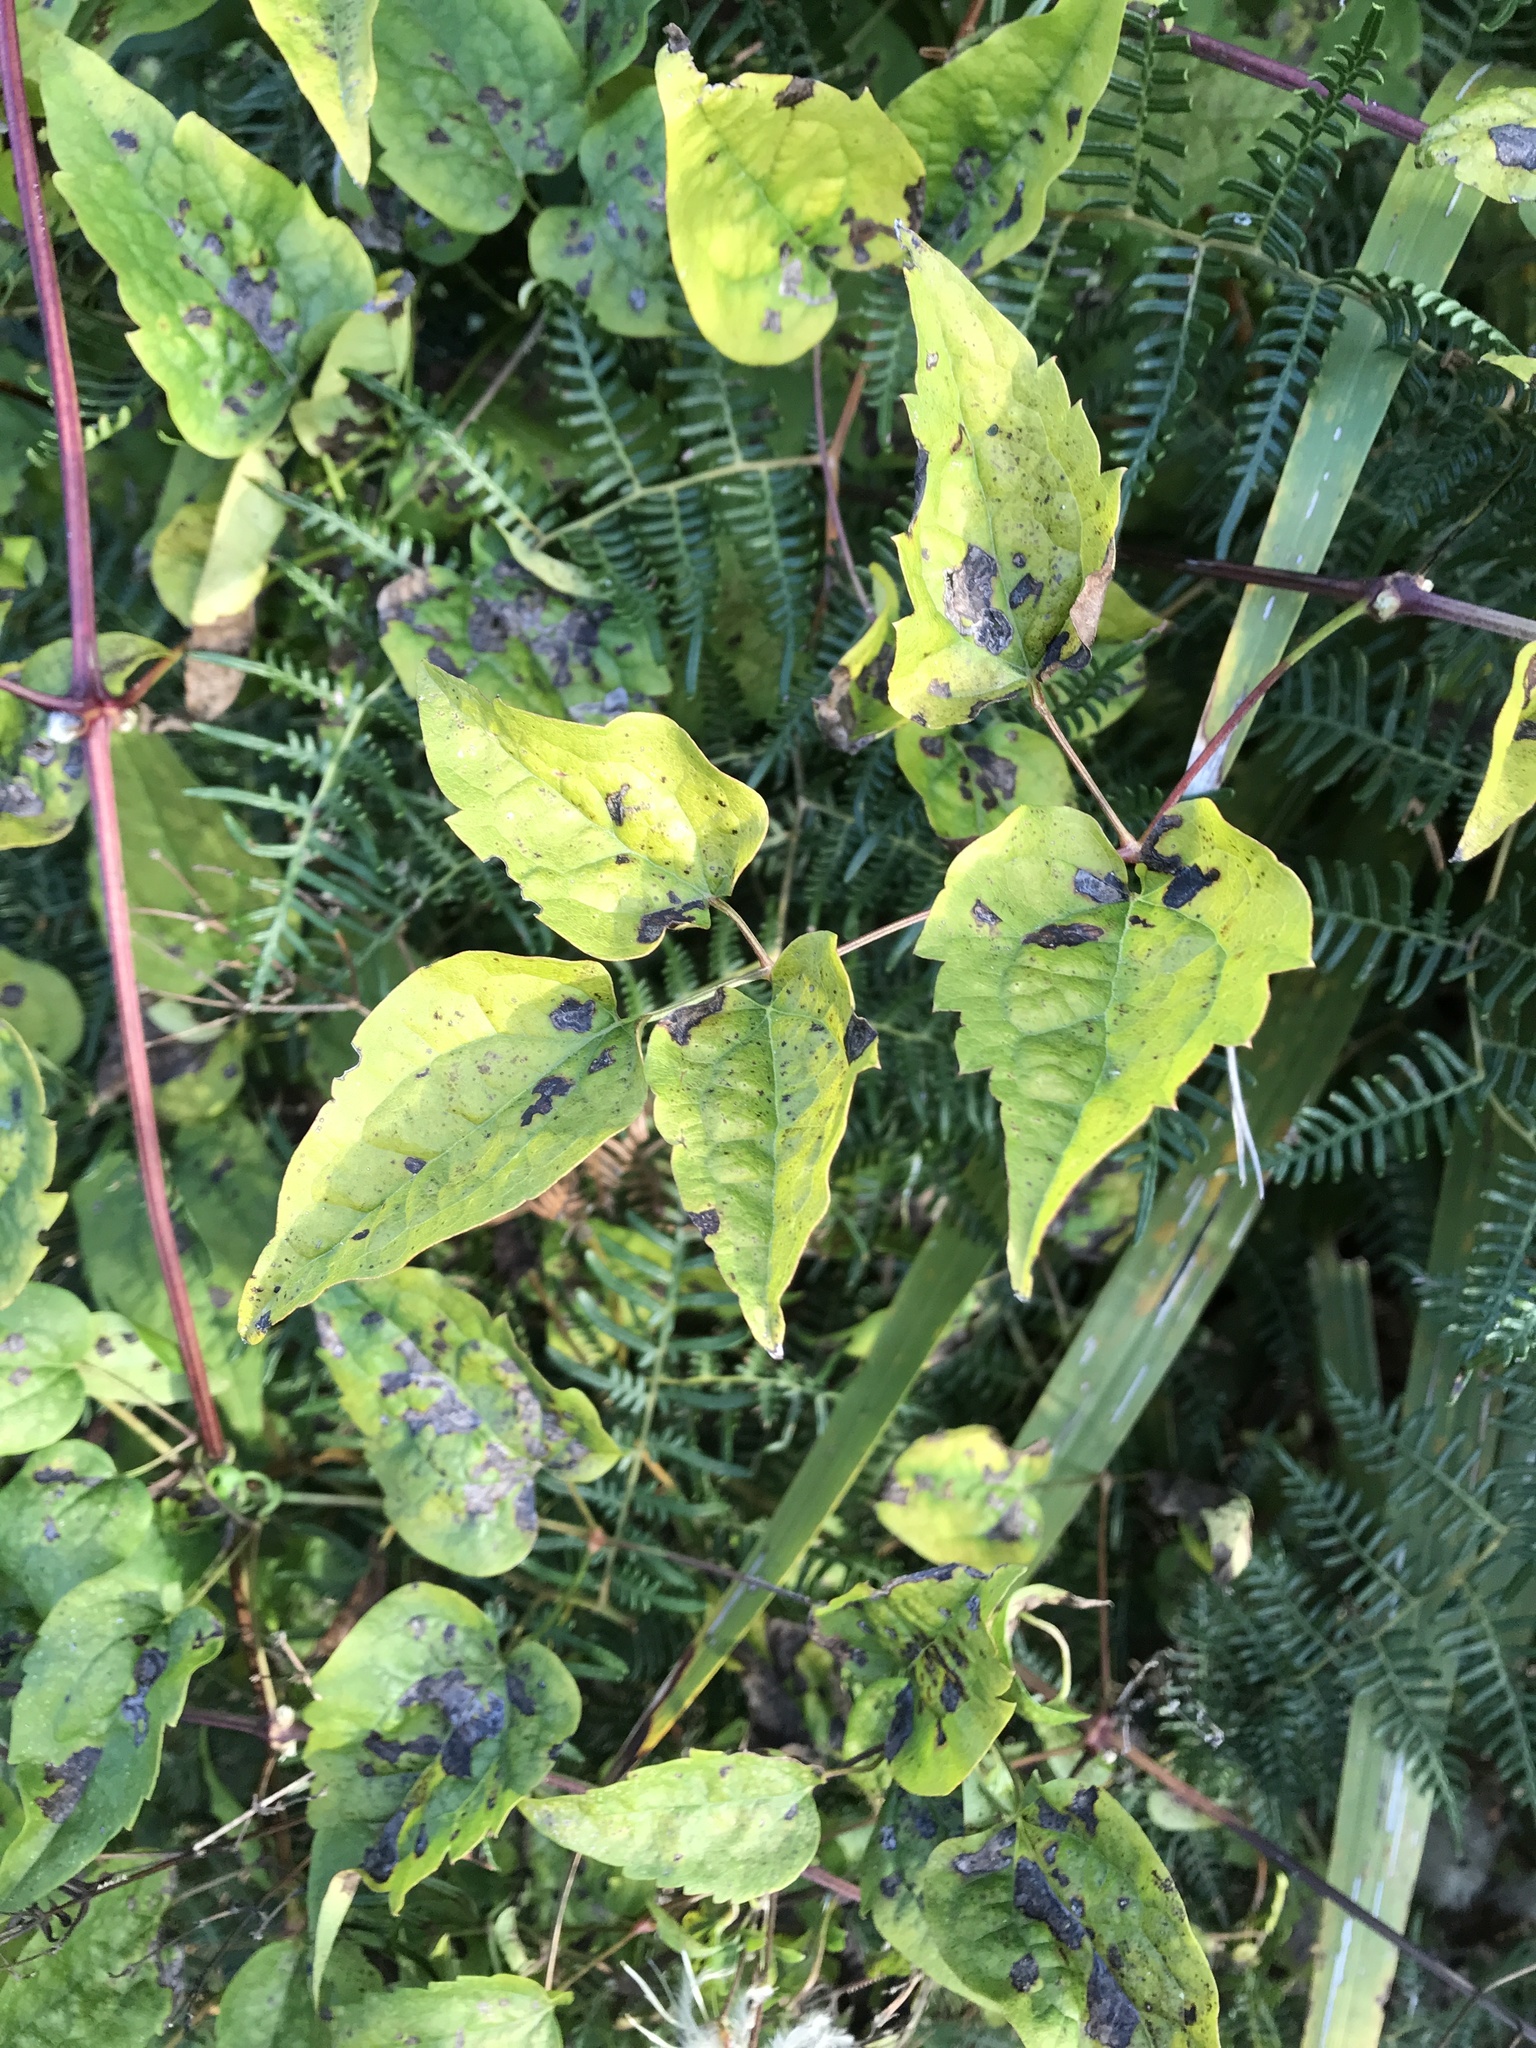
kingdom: Plantae
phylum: Tracheophyta
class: Magnoliopsida
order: Ranunculales
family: Ranunculaceae
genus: Clematis
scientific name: Clematis vitalba
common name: Evergreen clematis
